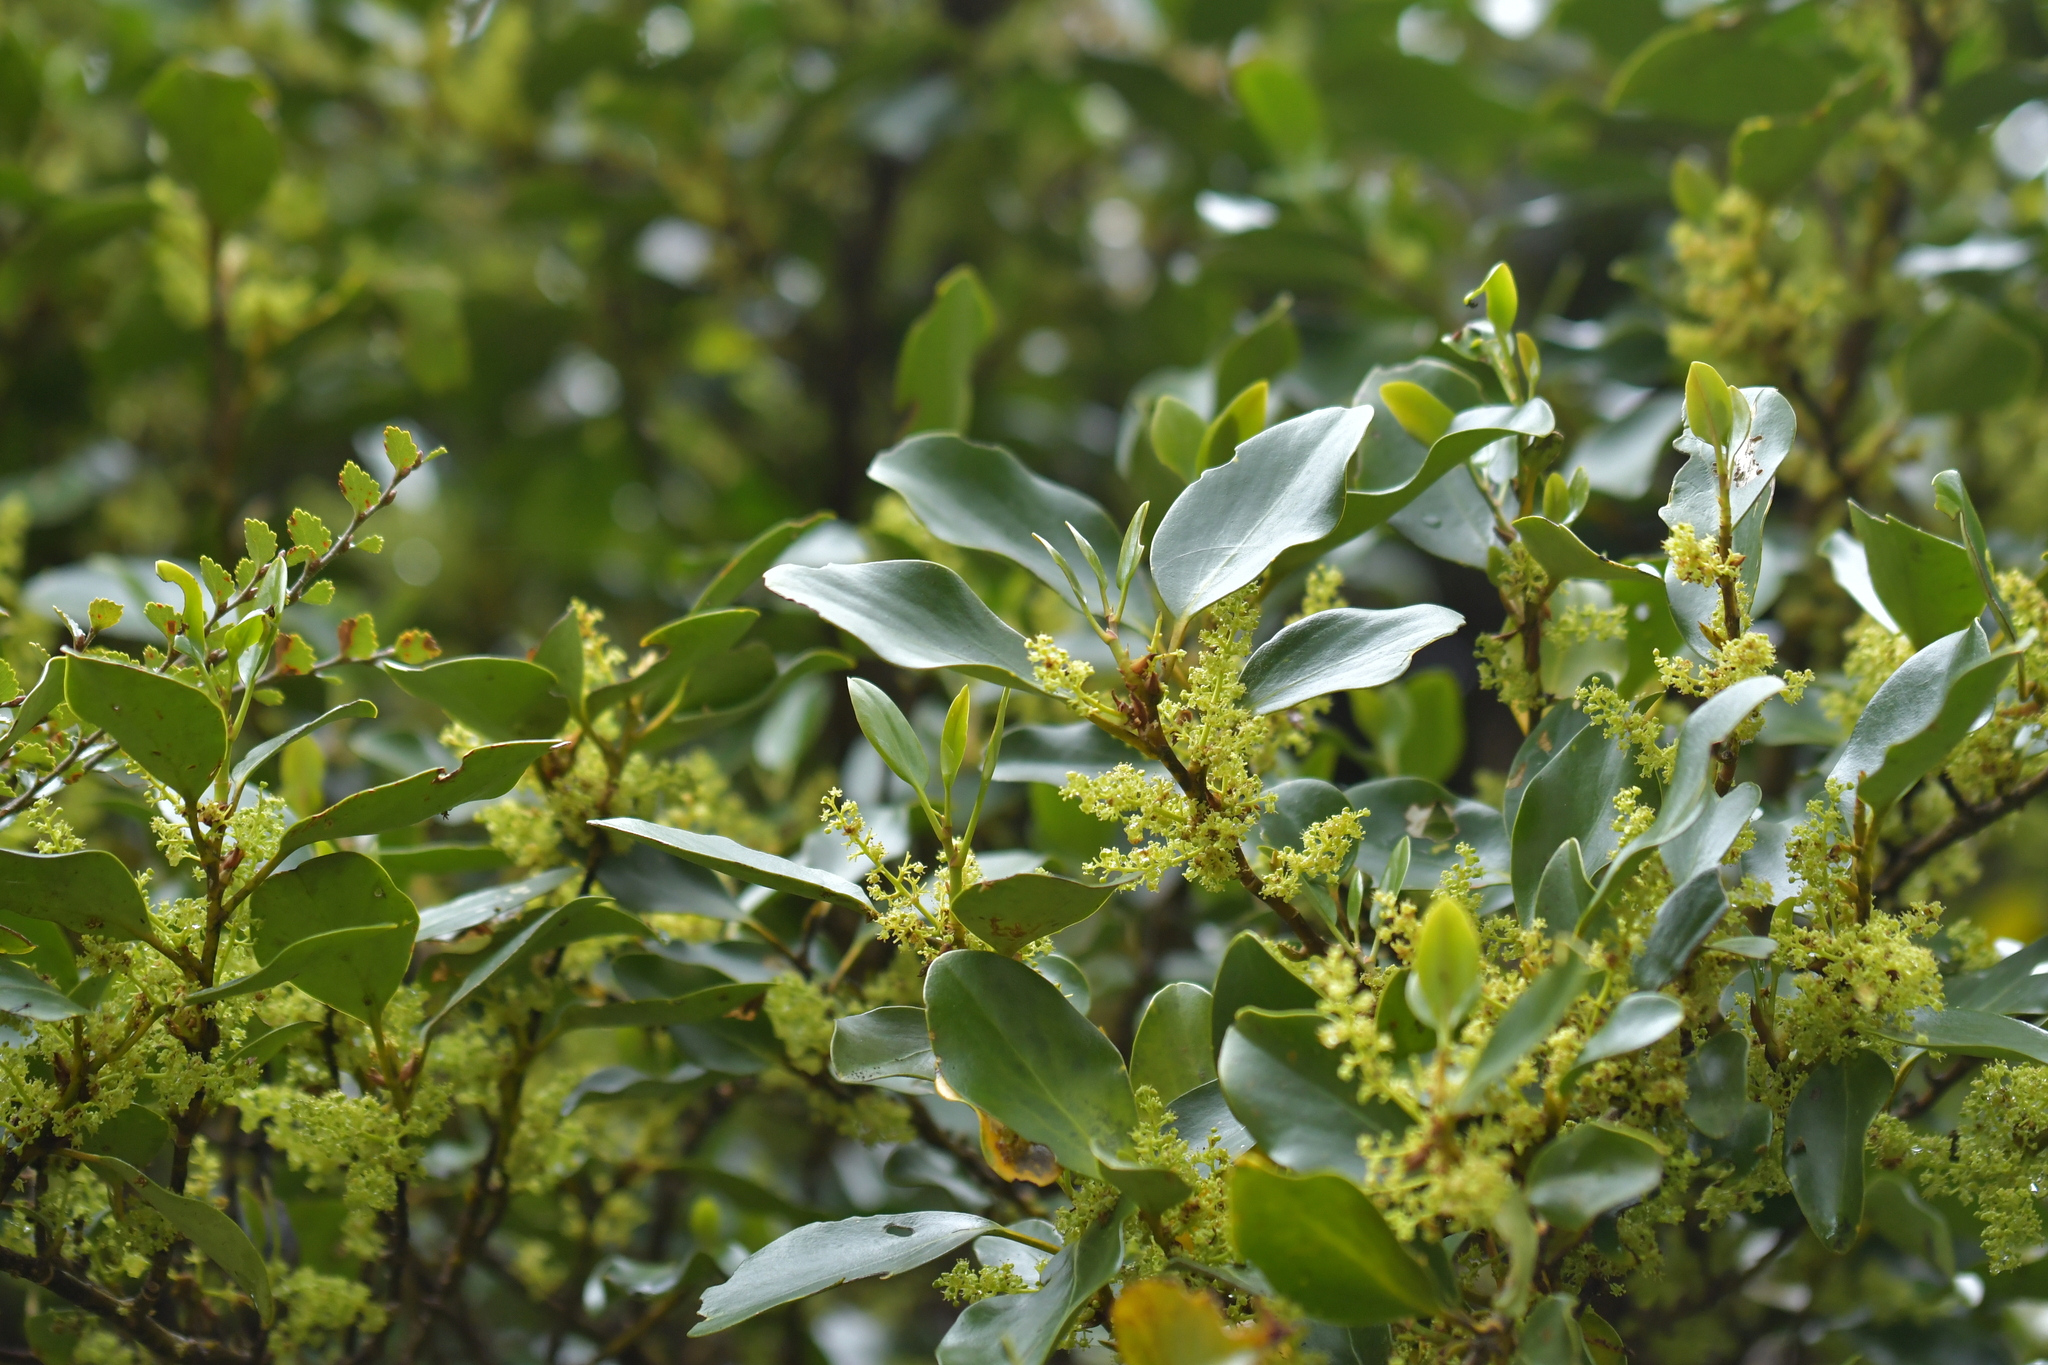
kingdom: Plantae
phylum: Tracheophyta
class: Magnoliopsida
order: Apiales
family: Griseliniaceae
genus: Griselinia
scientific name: Griselinia littoralis
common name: New zealand broadleaf
